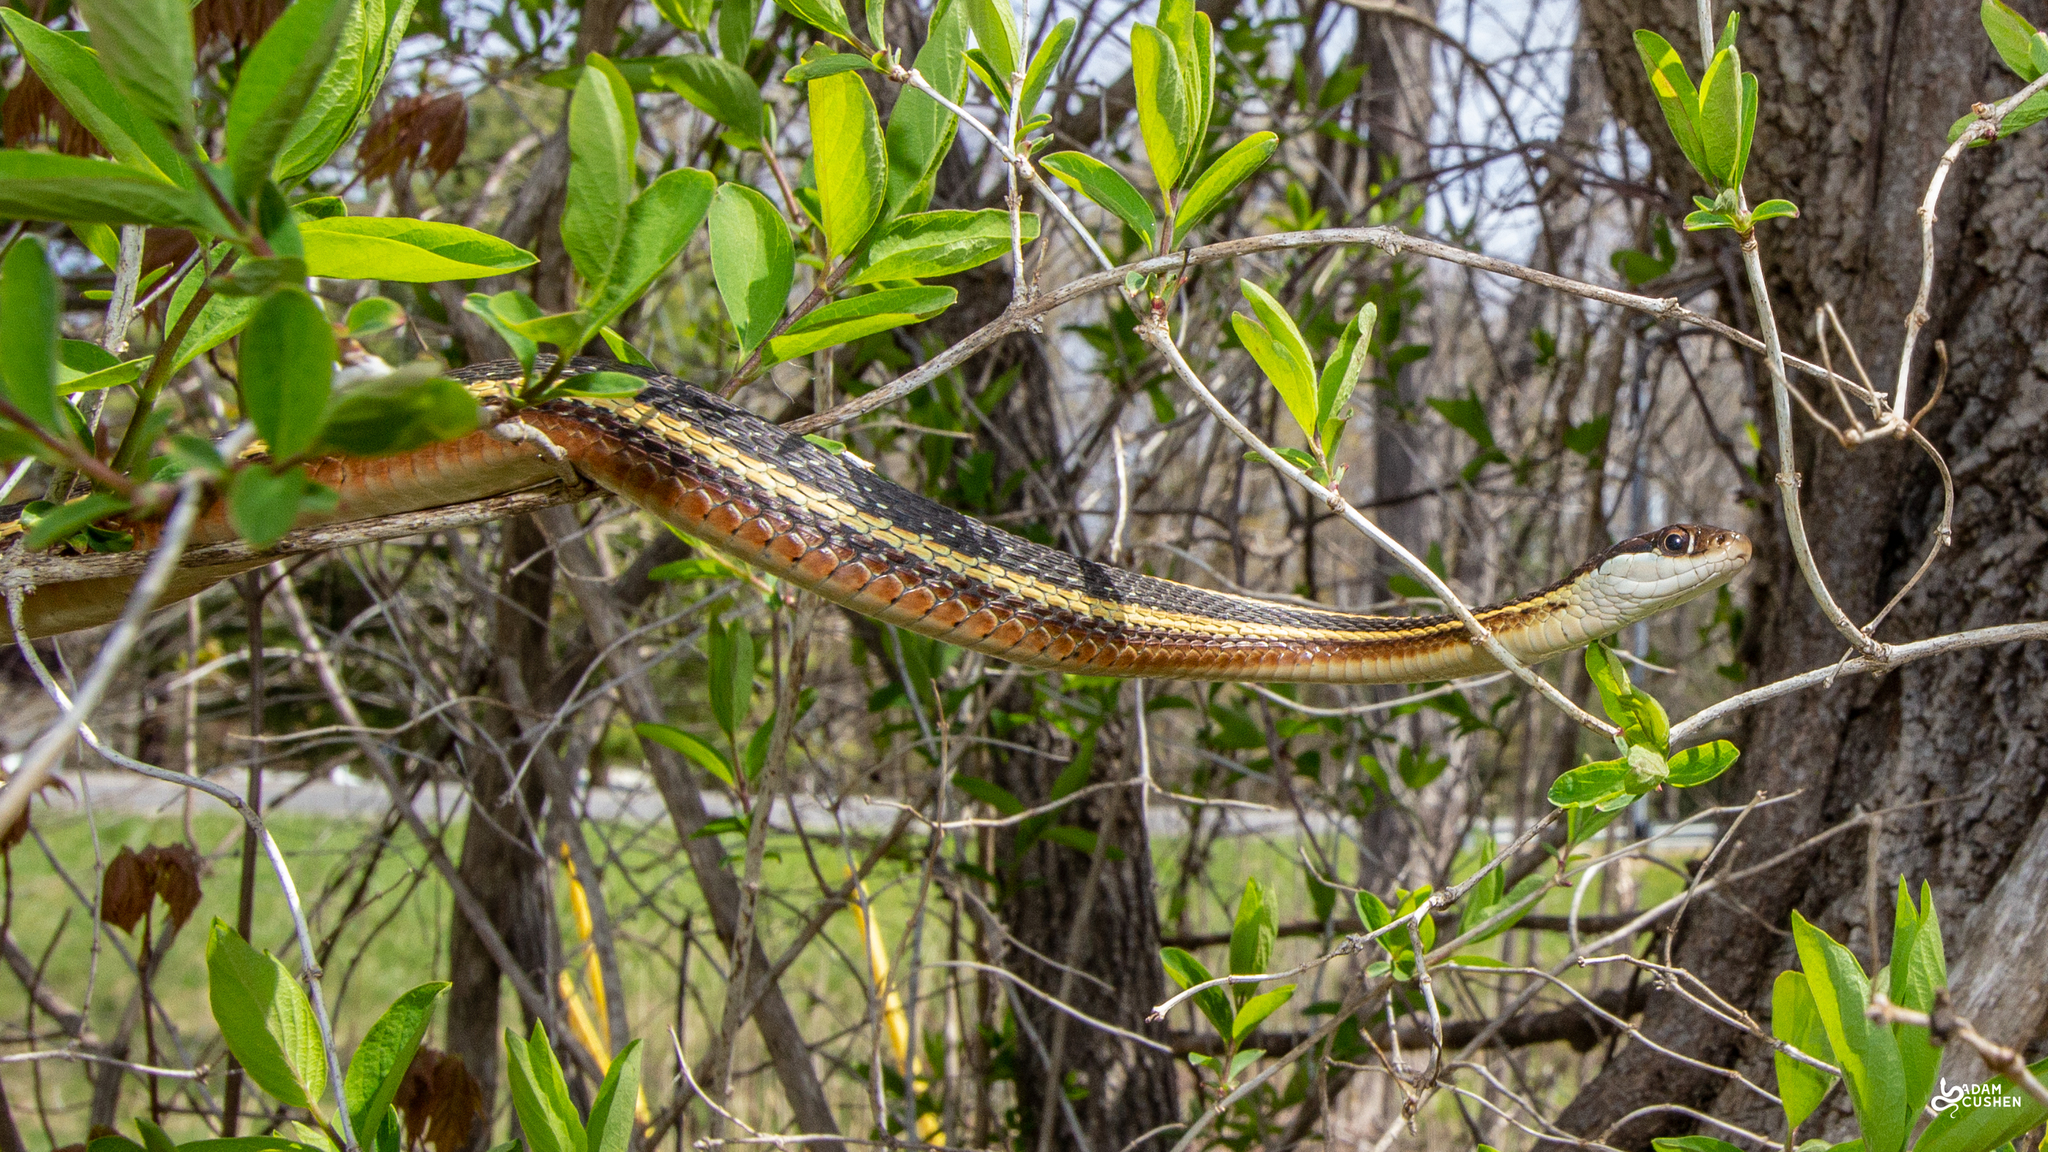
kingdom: Animalia
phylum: Chordata
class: Squamata
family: Colubridae
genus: Thamnophis
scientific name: Thamnophis saurita
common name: Eastern ribbonsnake
